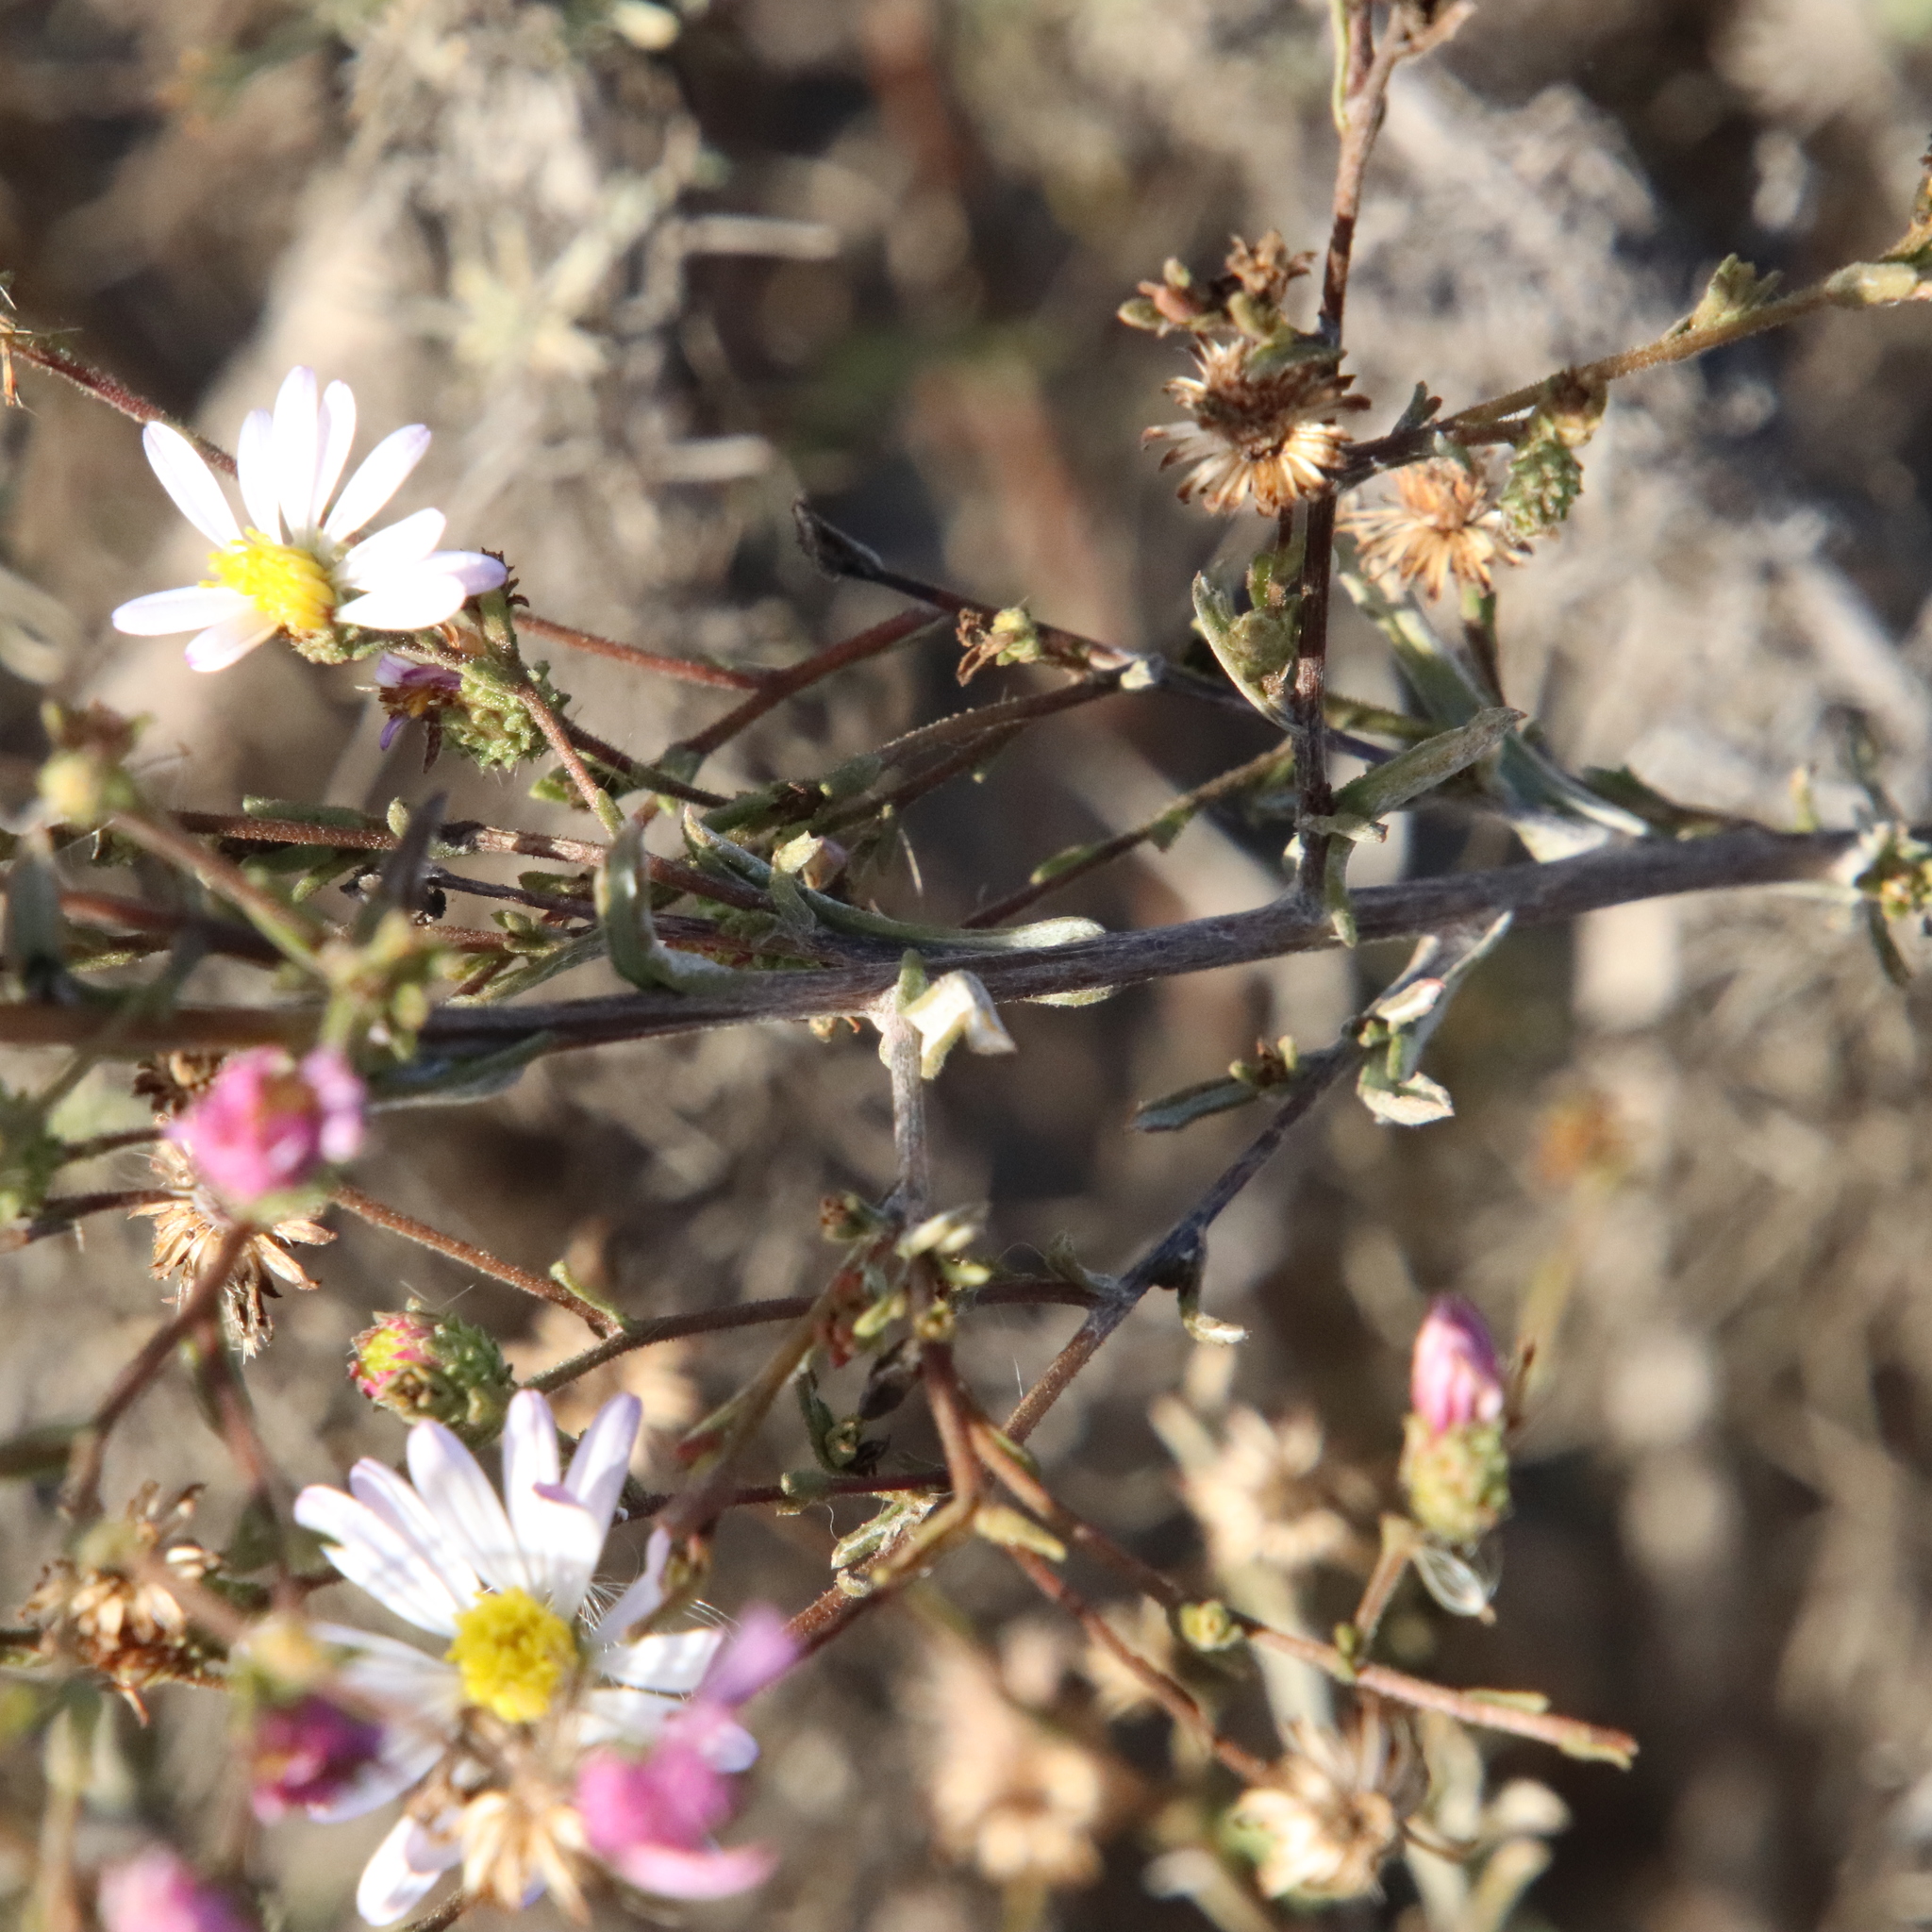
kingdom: Plantae
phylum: Tracheophyta
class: Magnoliopsida
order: Asterales
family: Asteraceae
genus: Corethrogyne
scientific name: Corethrogyne filaginifolia
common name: Sand-aster
